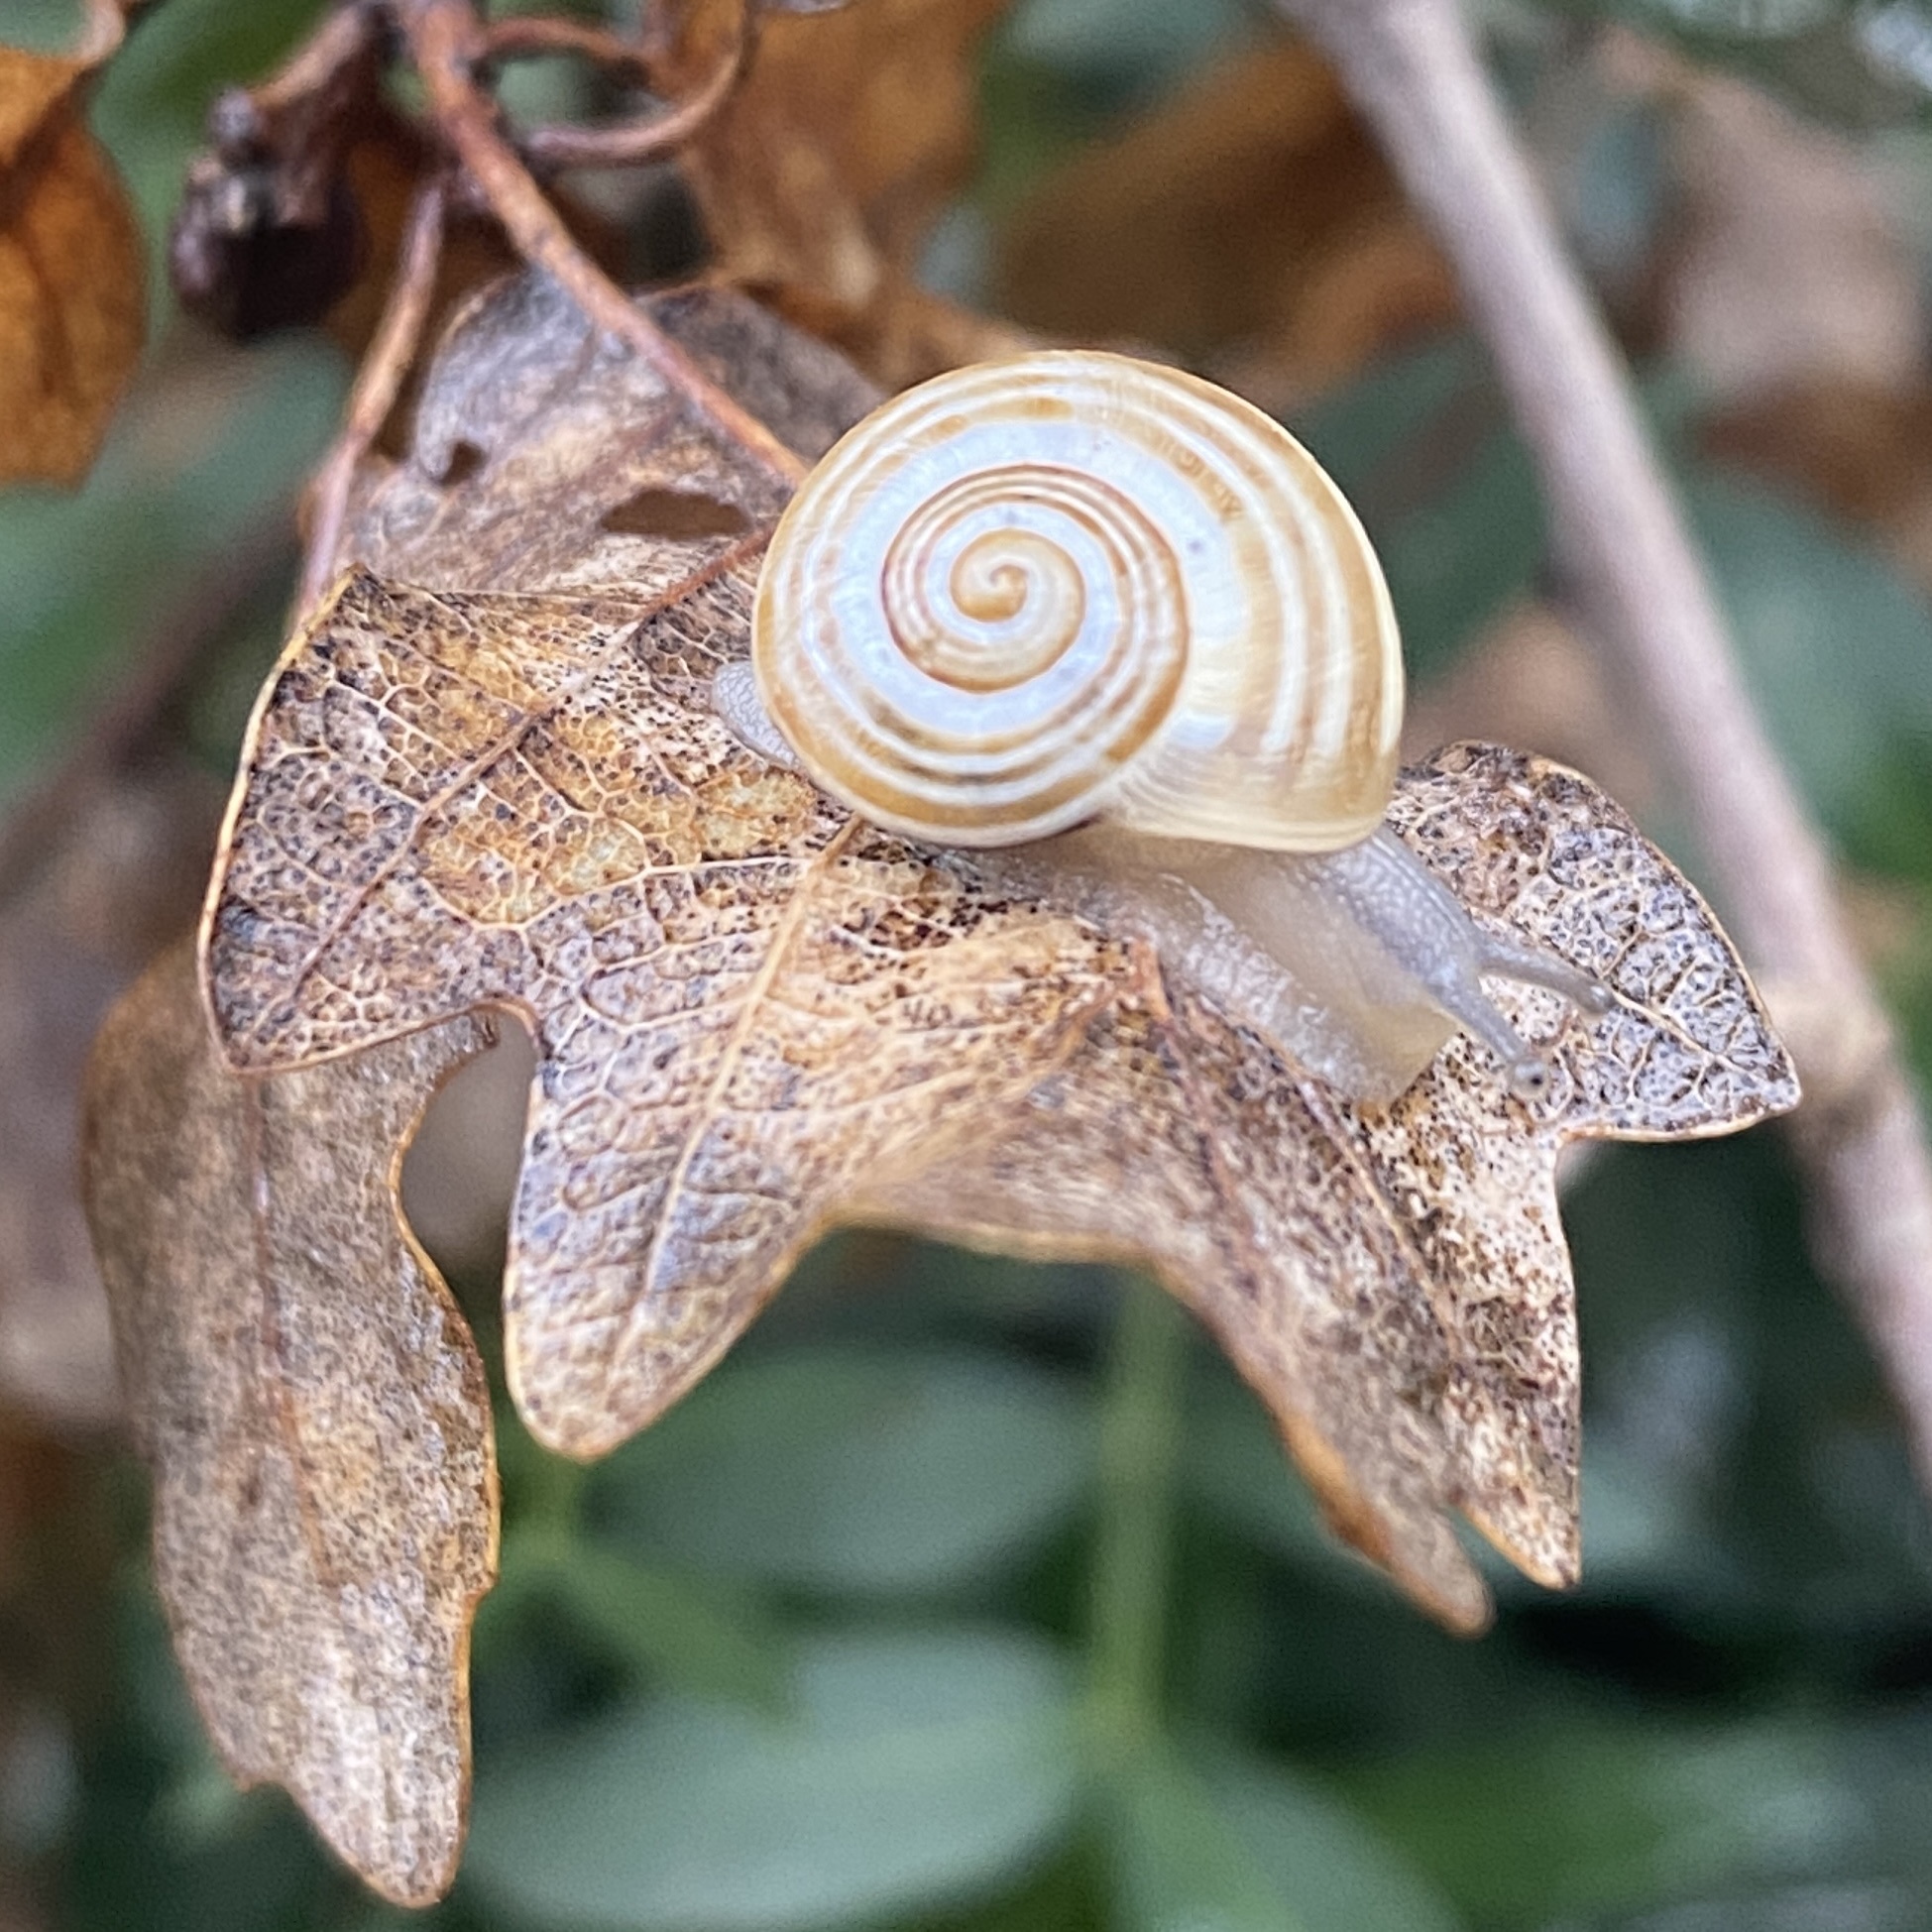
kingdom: Animalia
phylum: Mollusca
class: Gastropoda
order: Stylommatophora
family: Helicidae
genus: Pseudotachea
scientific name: Pseudotachea splendida
